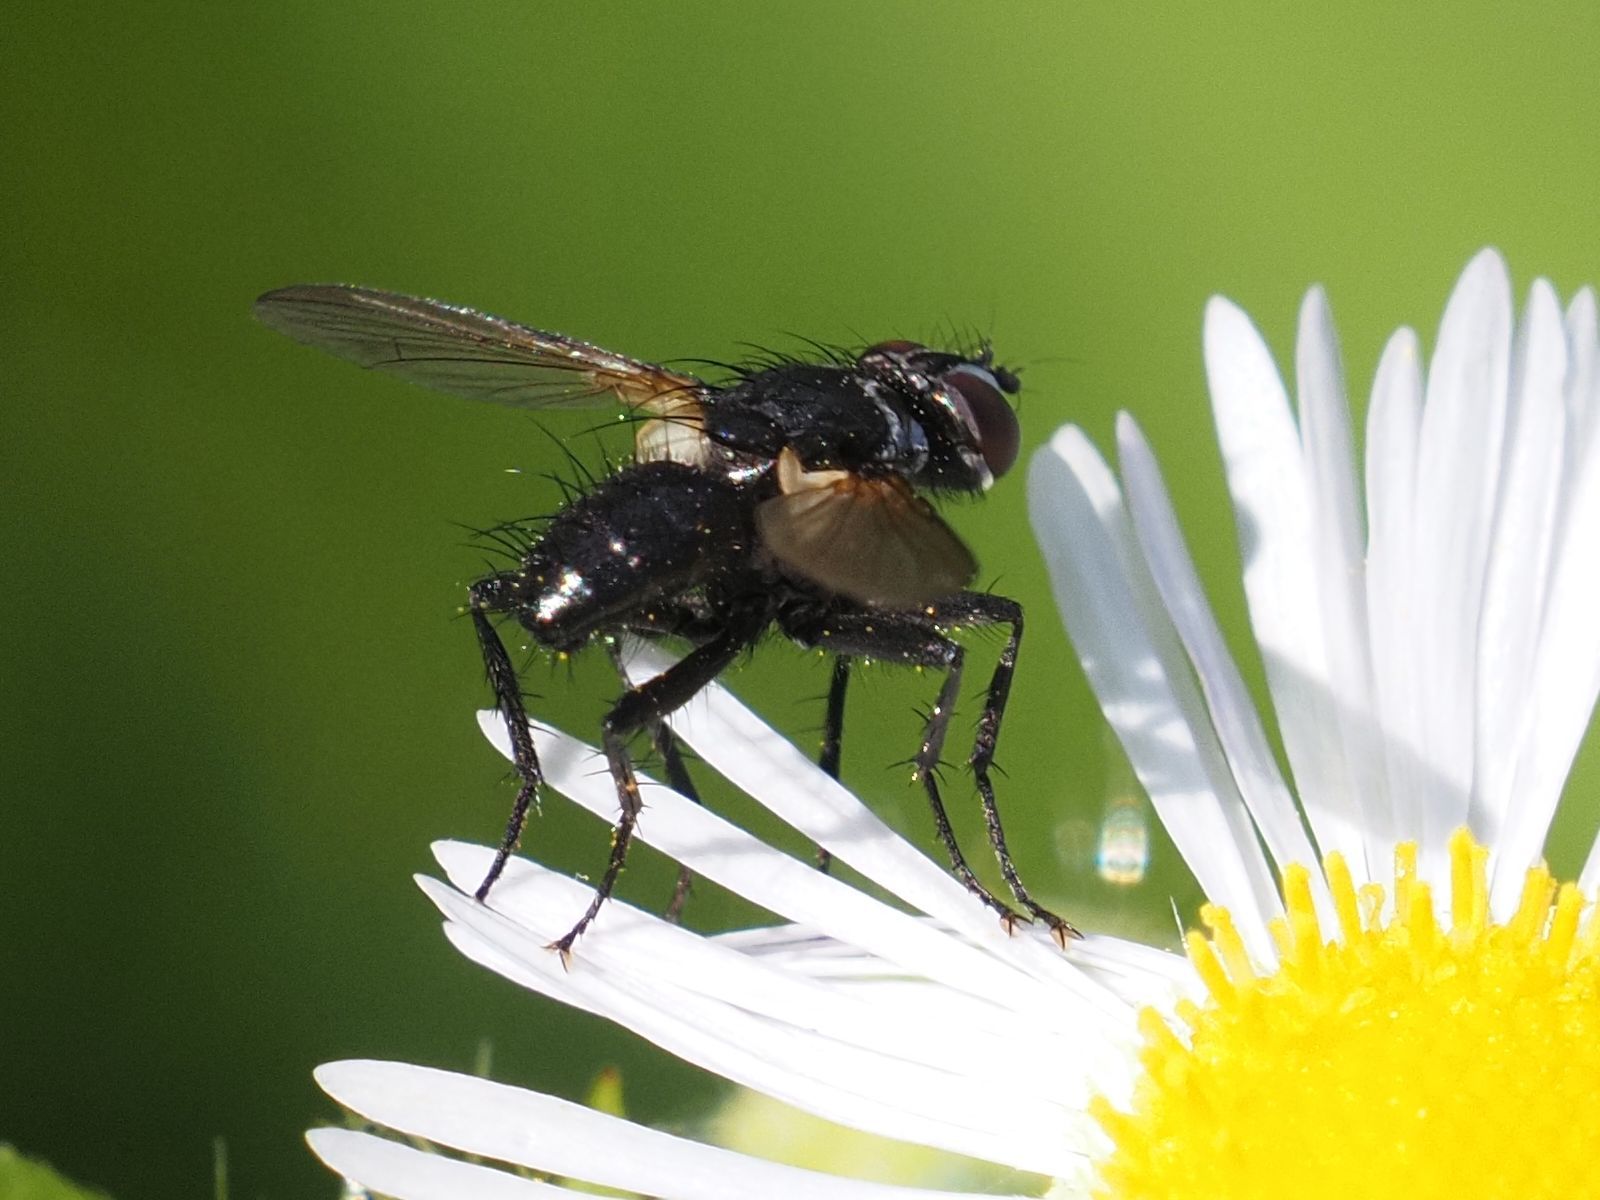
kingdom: Animalia
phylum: Arthropoda
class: Insecta
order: Diptera
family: Tachinidae
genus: Phania
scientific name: Phania funesta
